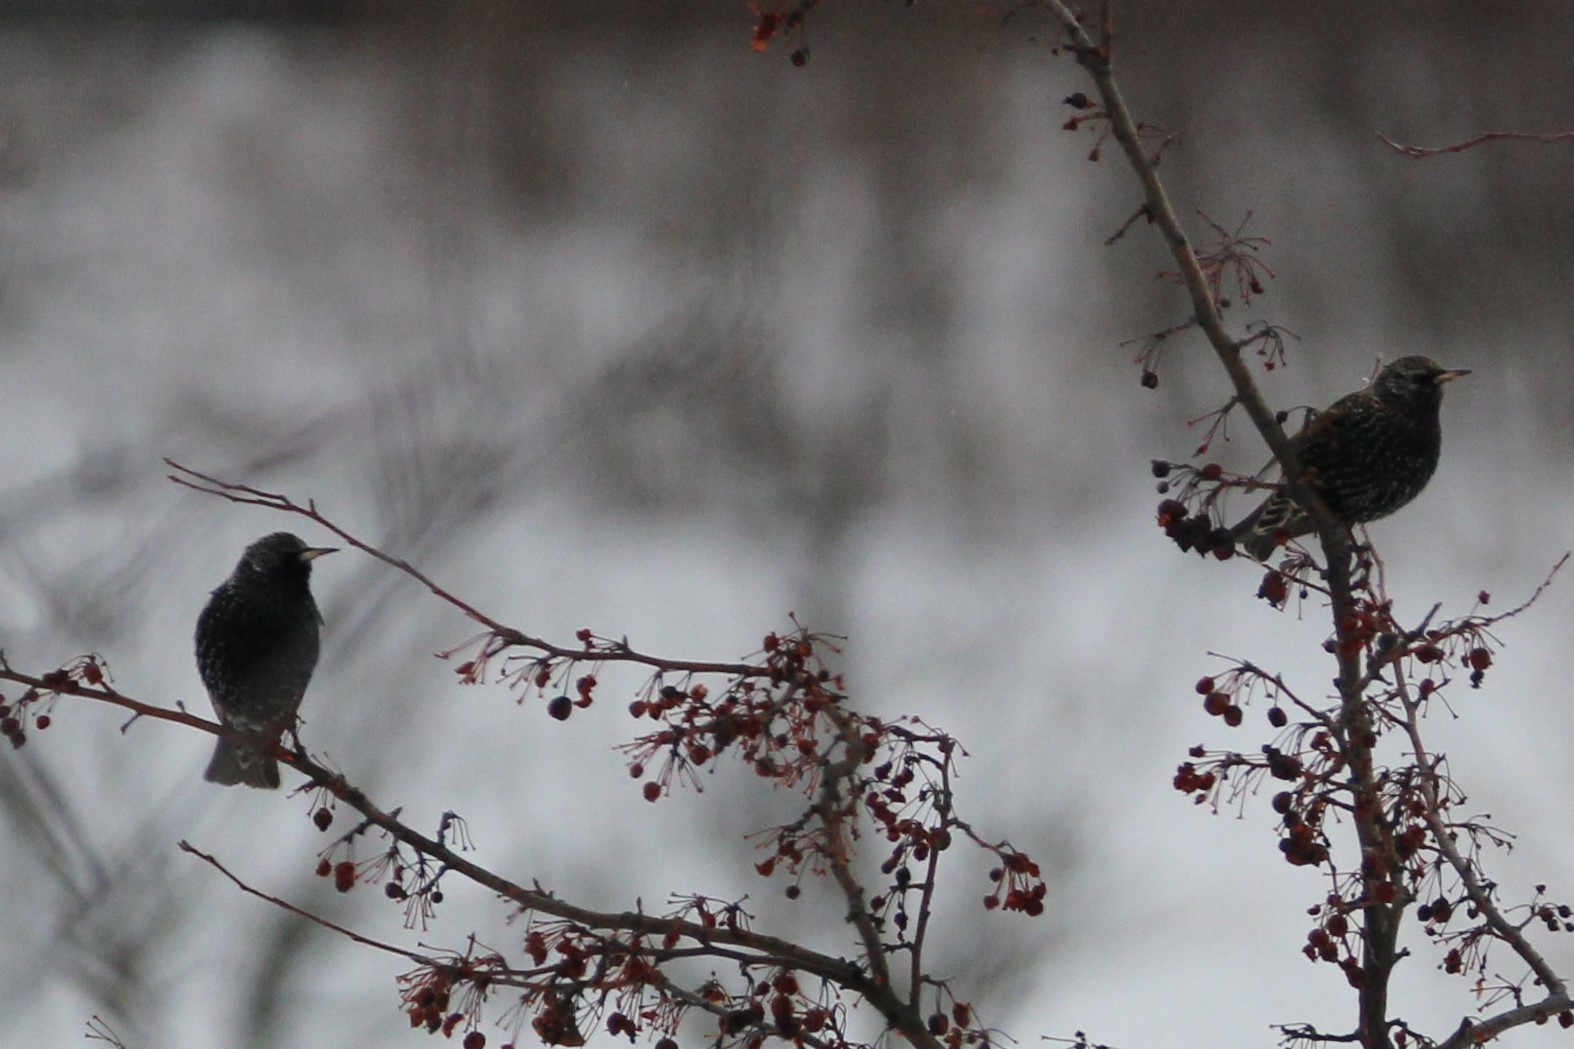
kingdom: Animalia
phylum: Chordata
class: Aves
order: Passeriformes
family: Sturnidae
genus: Sturnus
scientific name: Sturnus vulgaris
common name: Common starling
